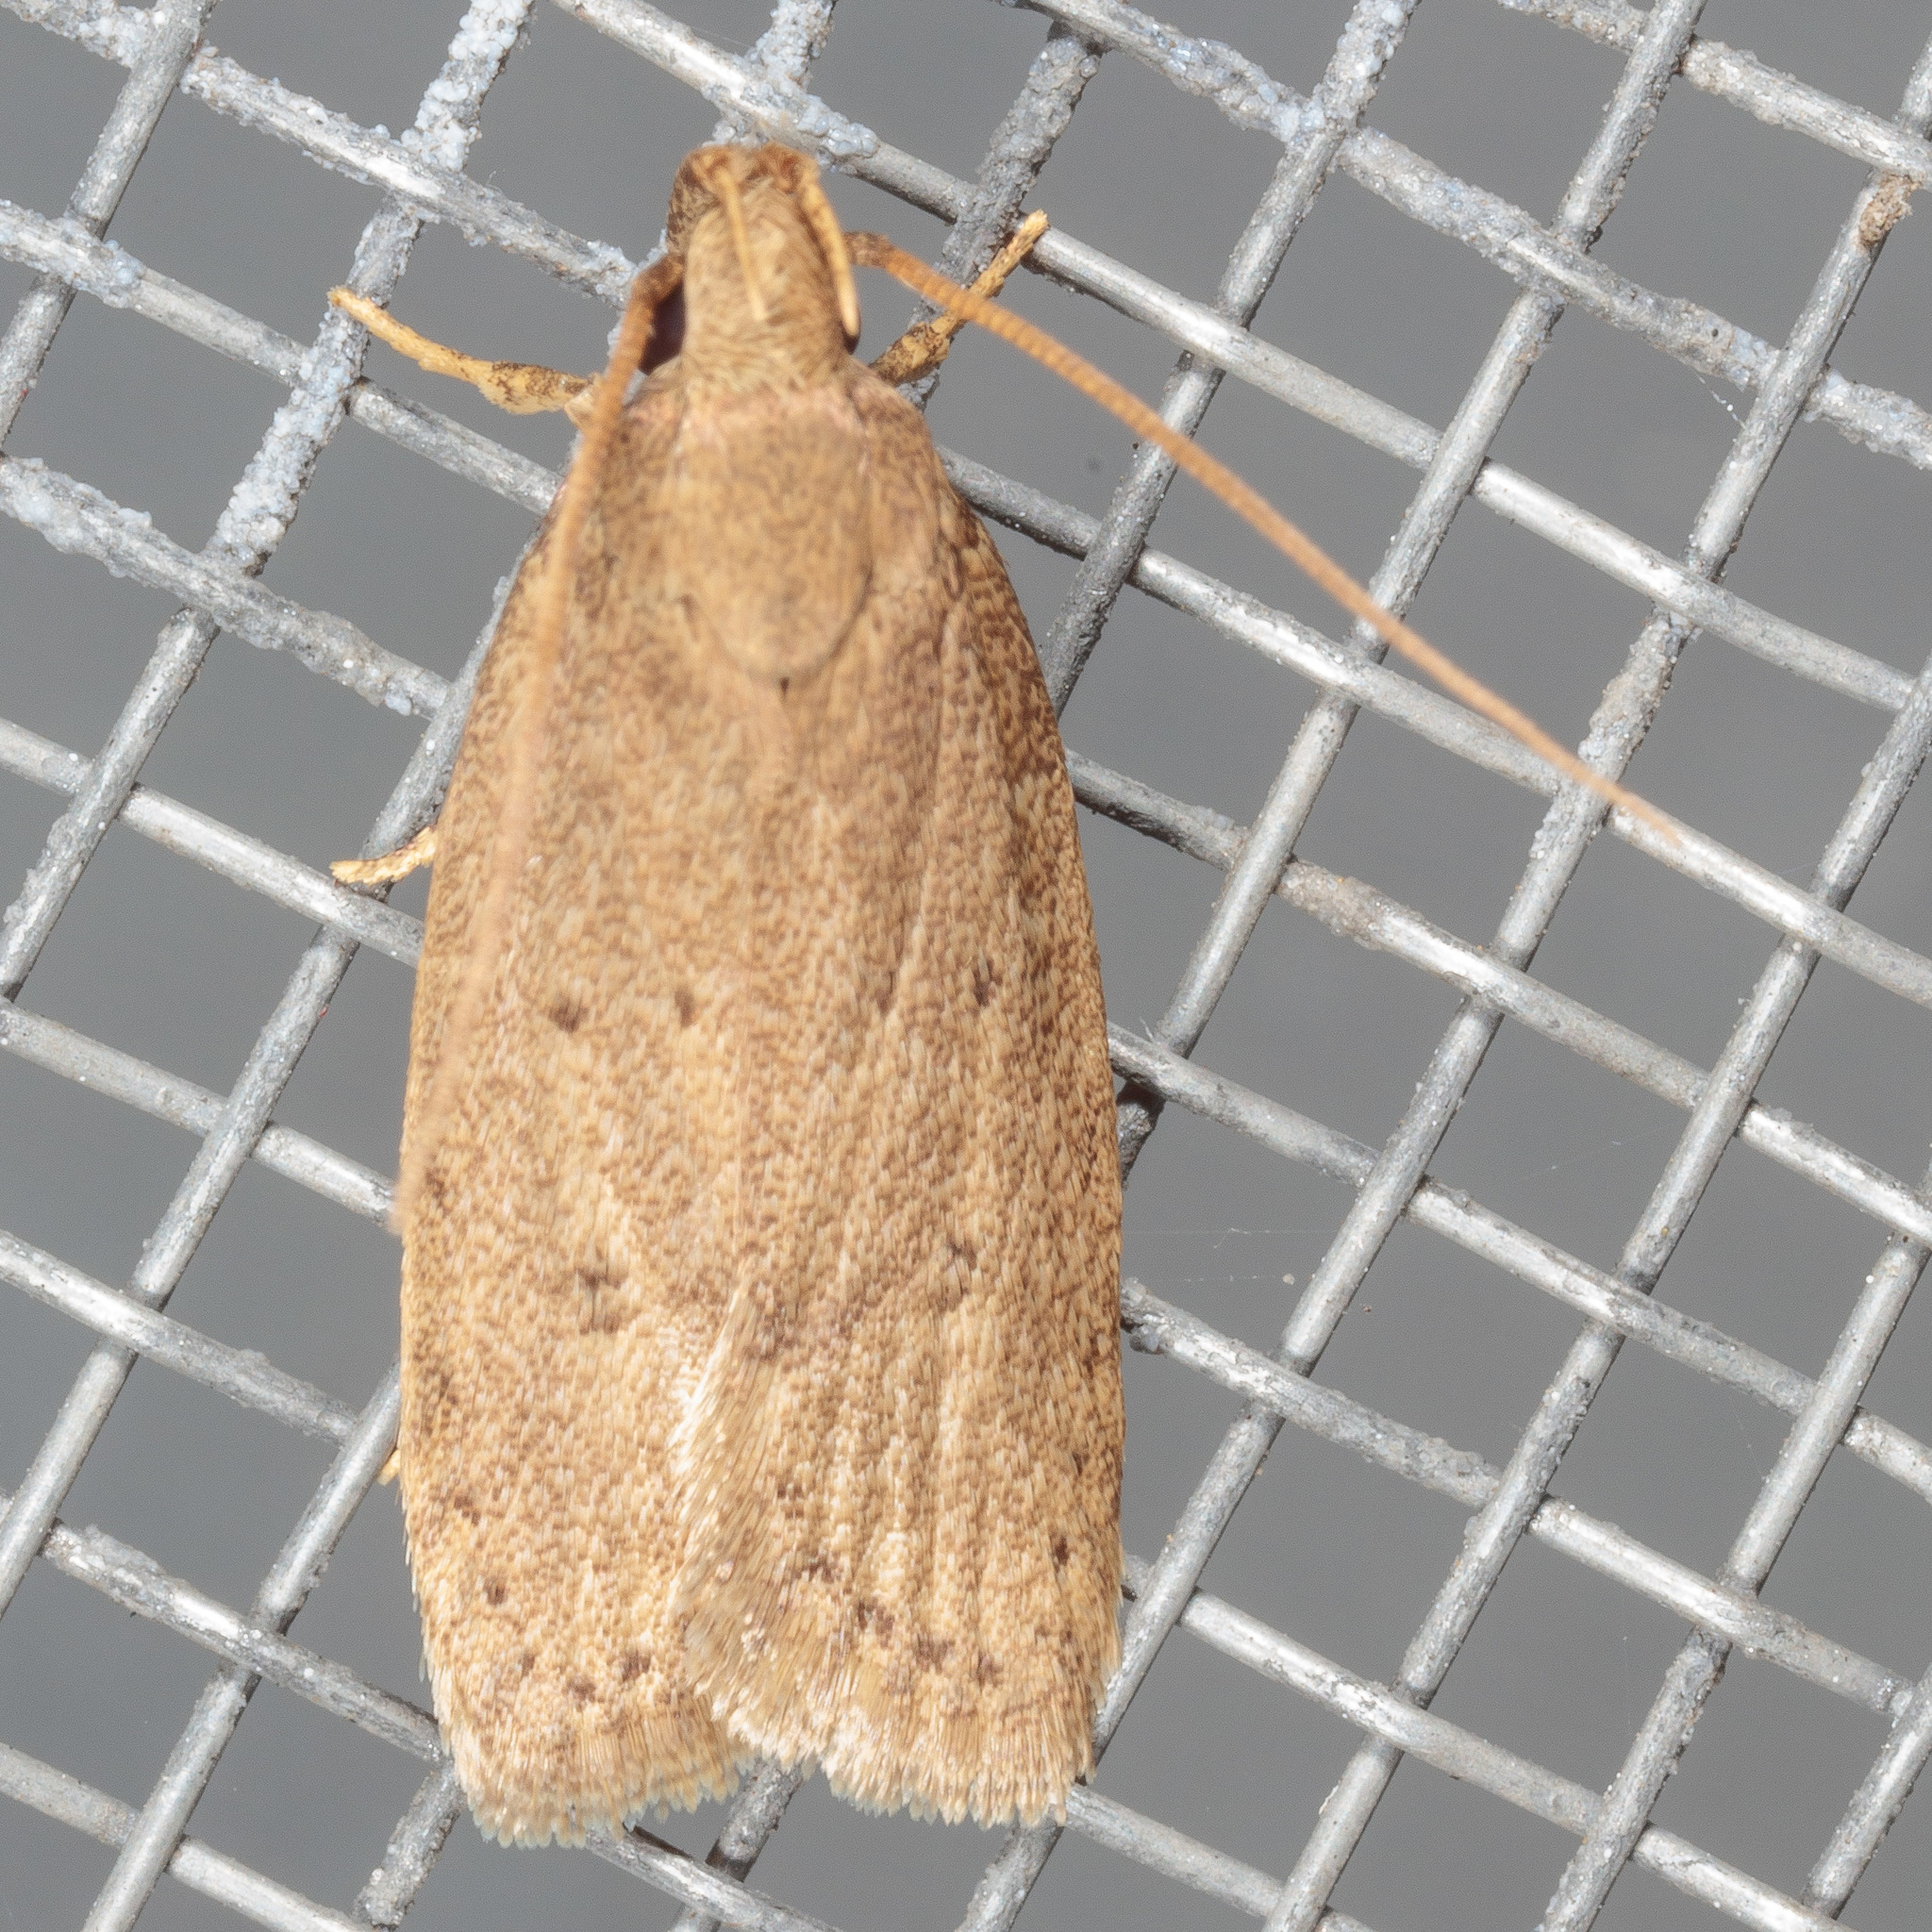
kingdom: Animalia
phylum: Arthropoda
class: Insecta
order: Lepidoptera
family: Autostichidae
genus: Autosticha
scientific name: Autosticha kyotensis
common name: Kyoto moth
